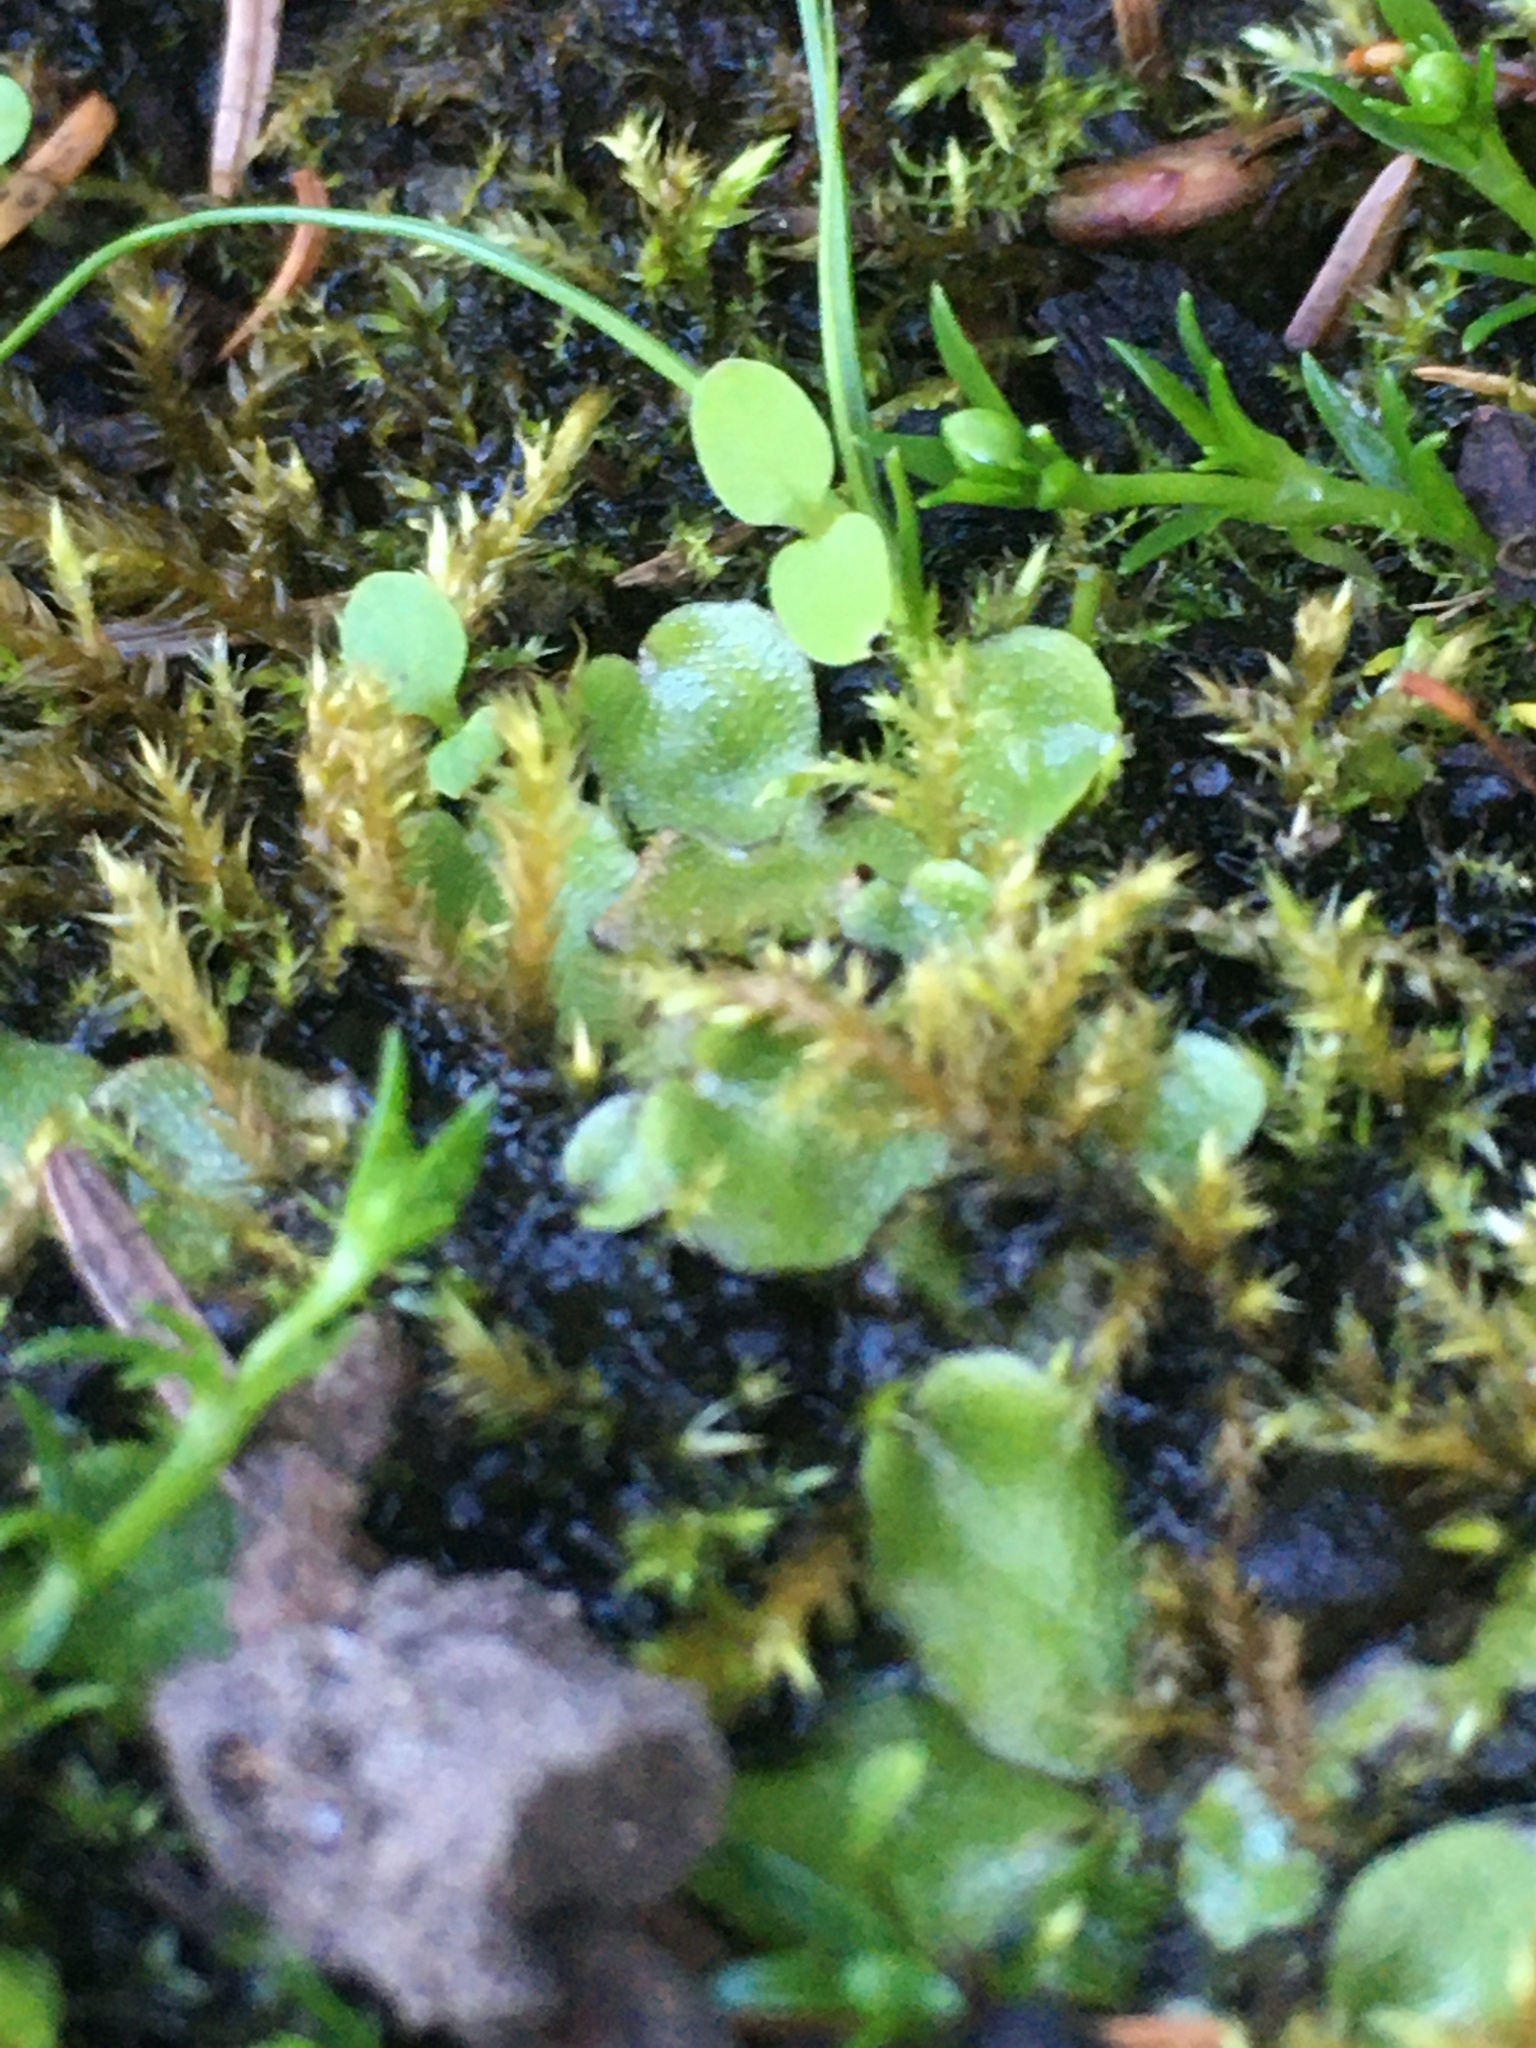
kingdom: Plantae
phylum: Marchantiophyta
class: Marchantiopsida
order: Lunulariales
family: Lunulariaceae
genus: Lunularia
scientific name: Lunularia cruciata
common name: Crescent-cup liverwort
